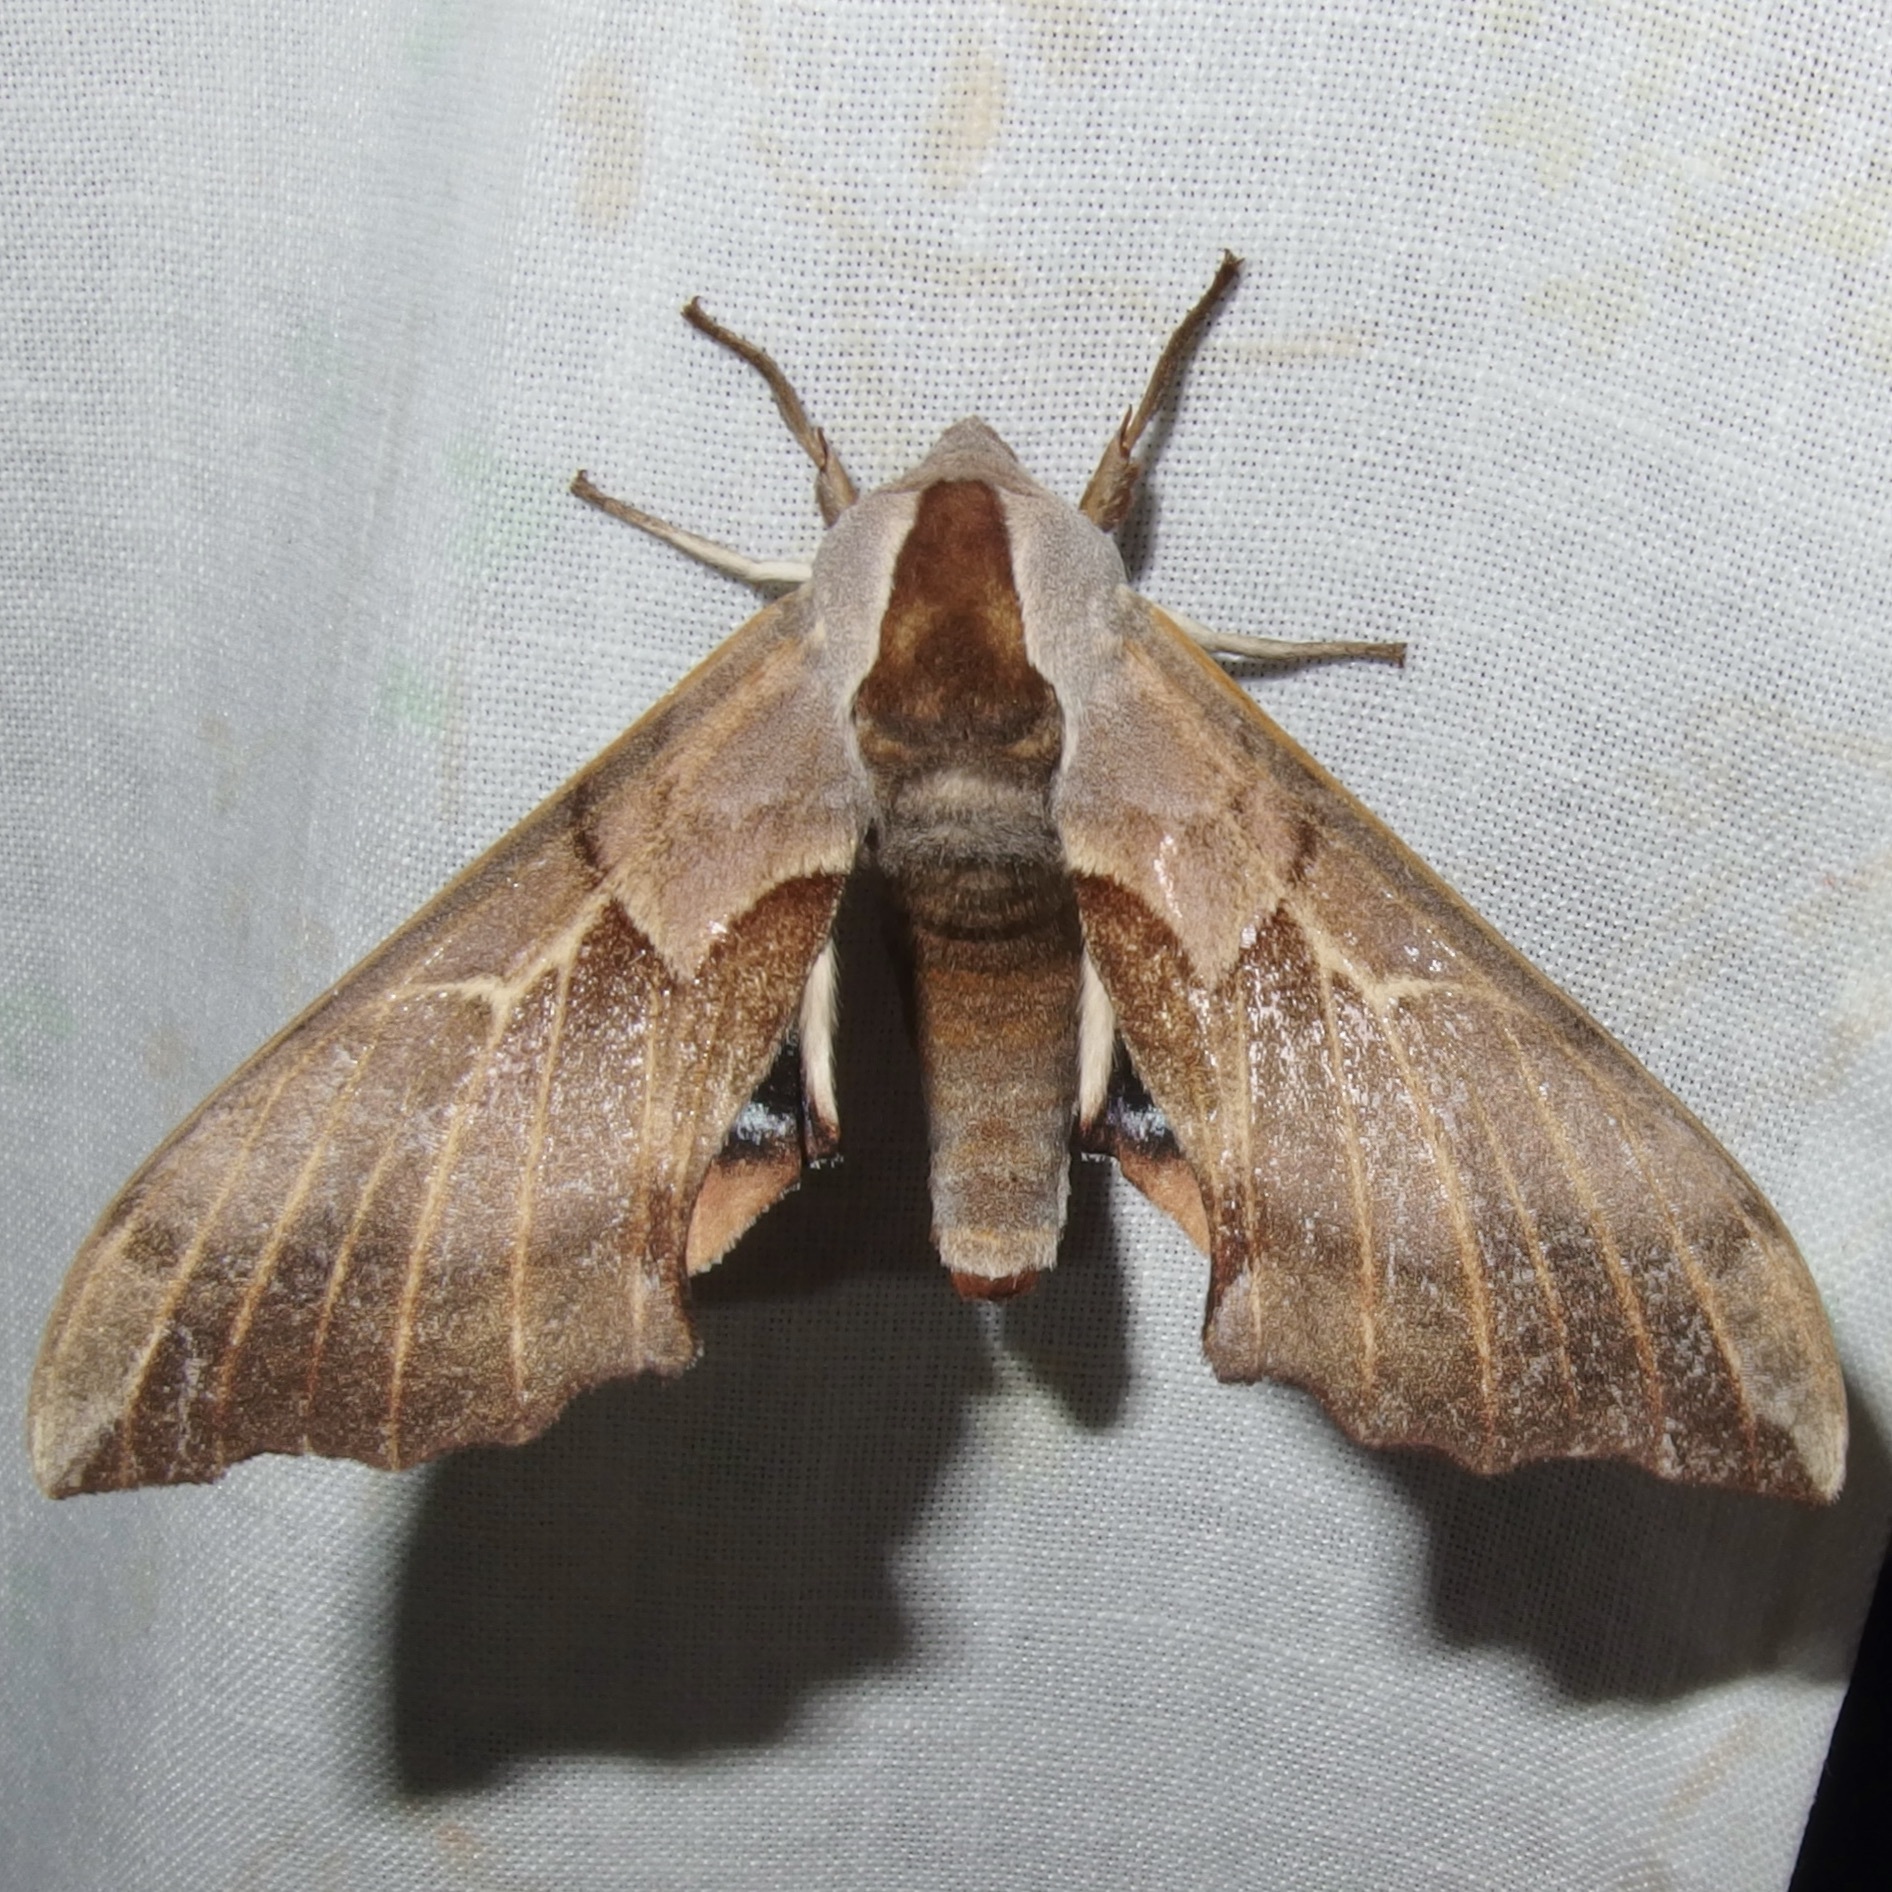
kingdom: Animalia
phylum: Arthropoda
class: Insecta
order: Lepidoptera
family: Sphingidae
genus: Smerinthus
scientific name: Smerinthus cerisyi
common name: Cerisy's sphinx moth
